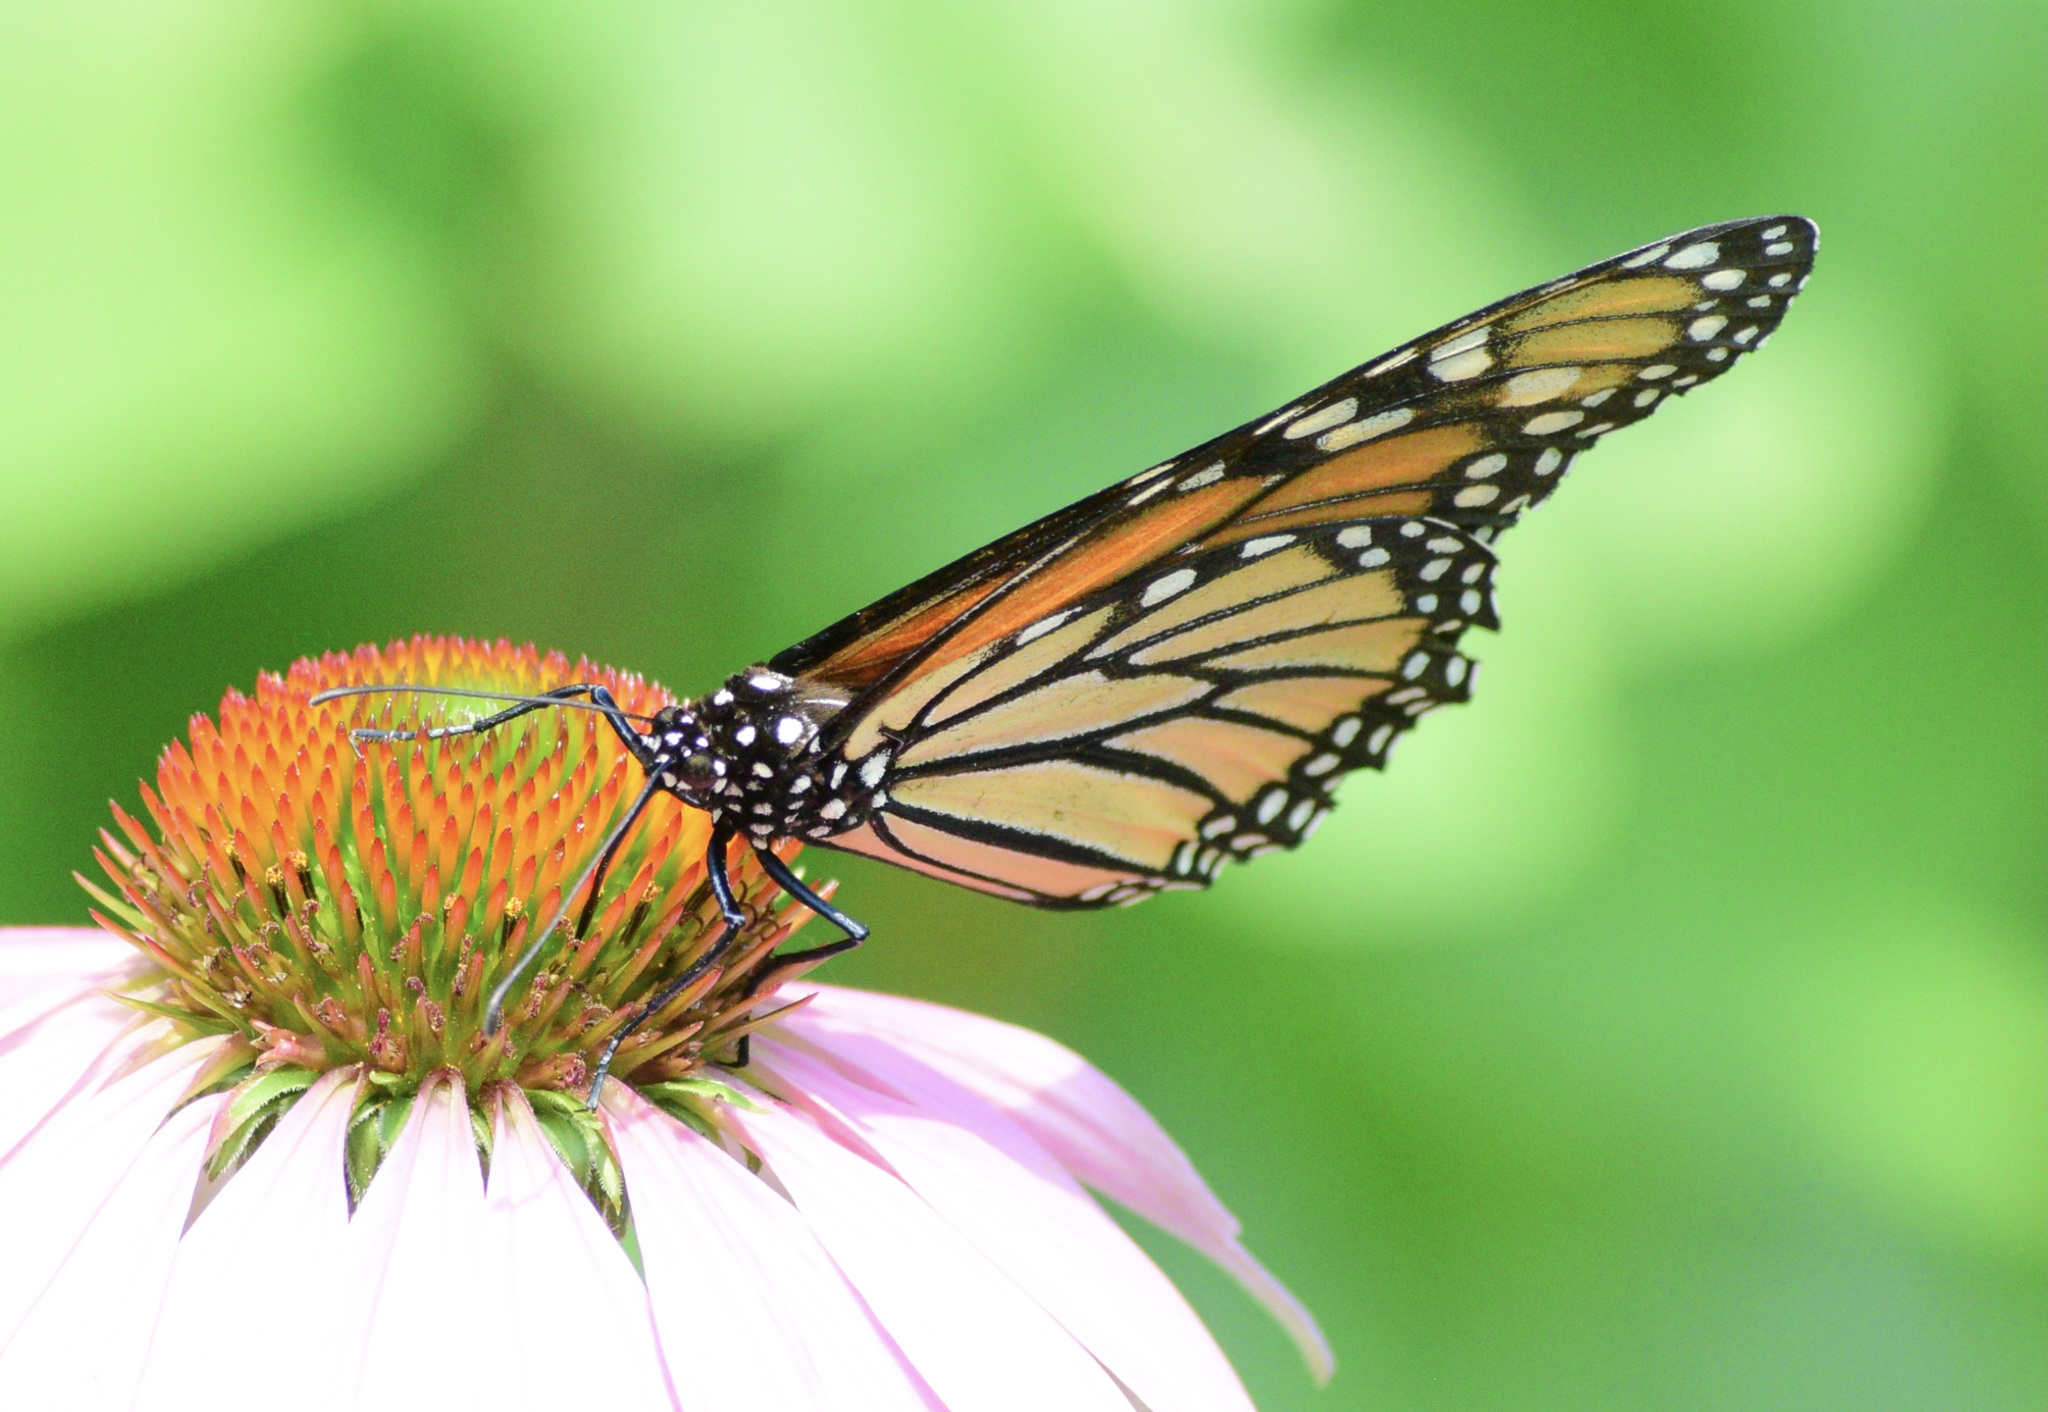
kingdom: Animalia
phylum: Arthropoda
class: Insecta
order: Lepidoptera
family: Nymphalidae
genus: Danaus
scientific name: Danaus plexippus
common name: Monarch
